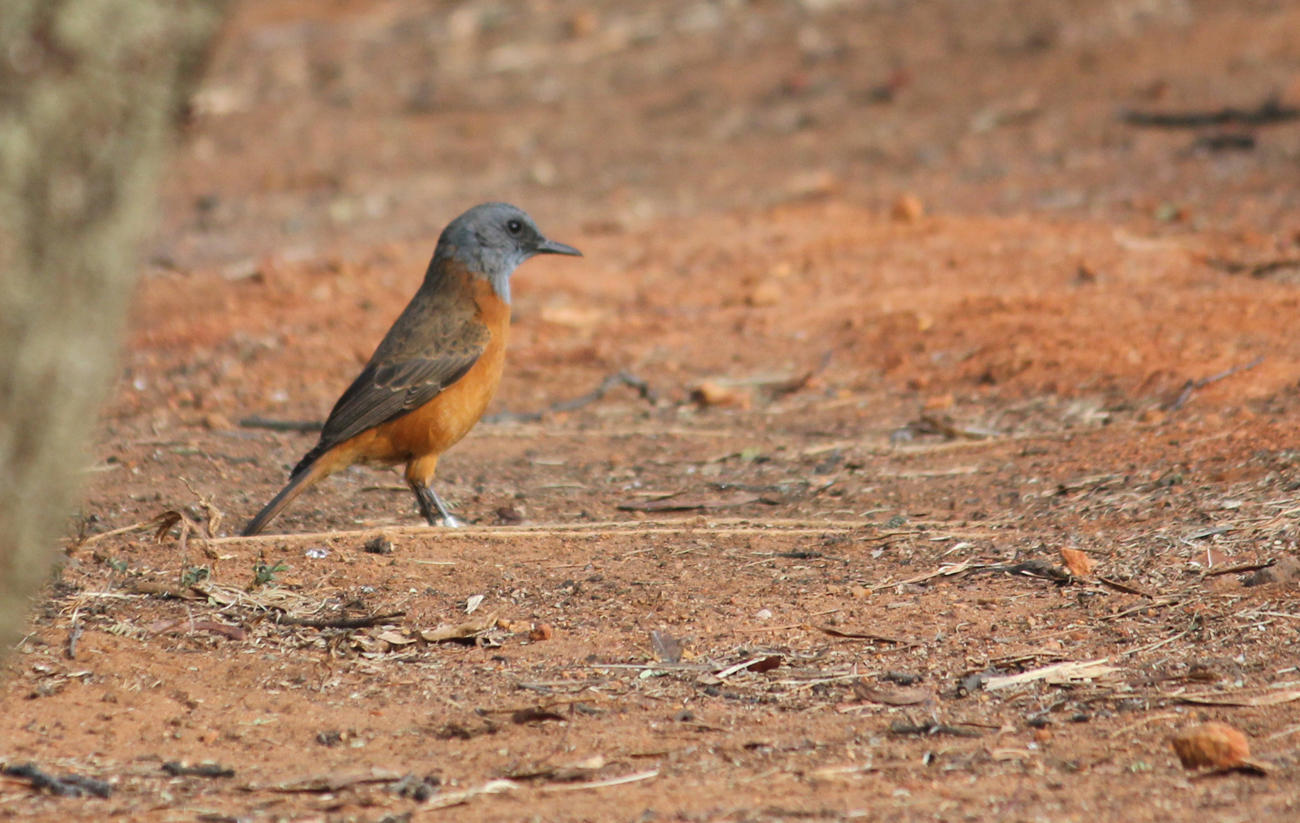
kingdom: Animalia
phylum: Chordata
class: Aves
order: Passeriformes
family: Muscicapidae
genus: Monticola
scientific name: Monticola rupestris
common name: Cape rock thrush
